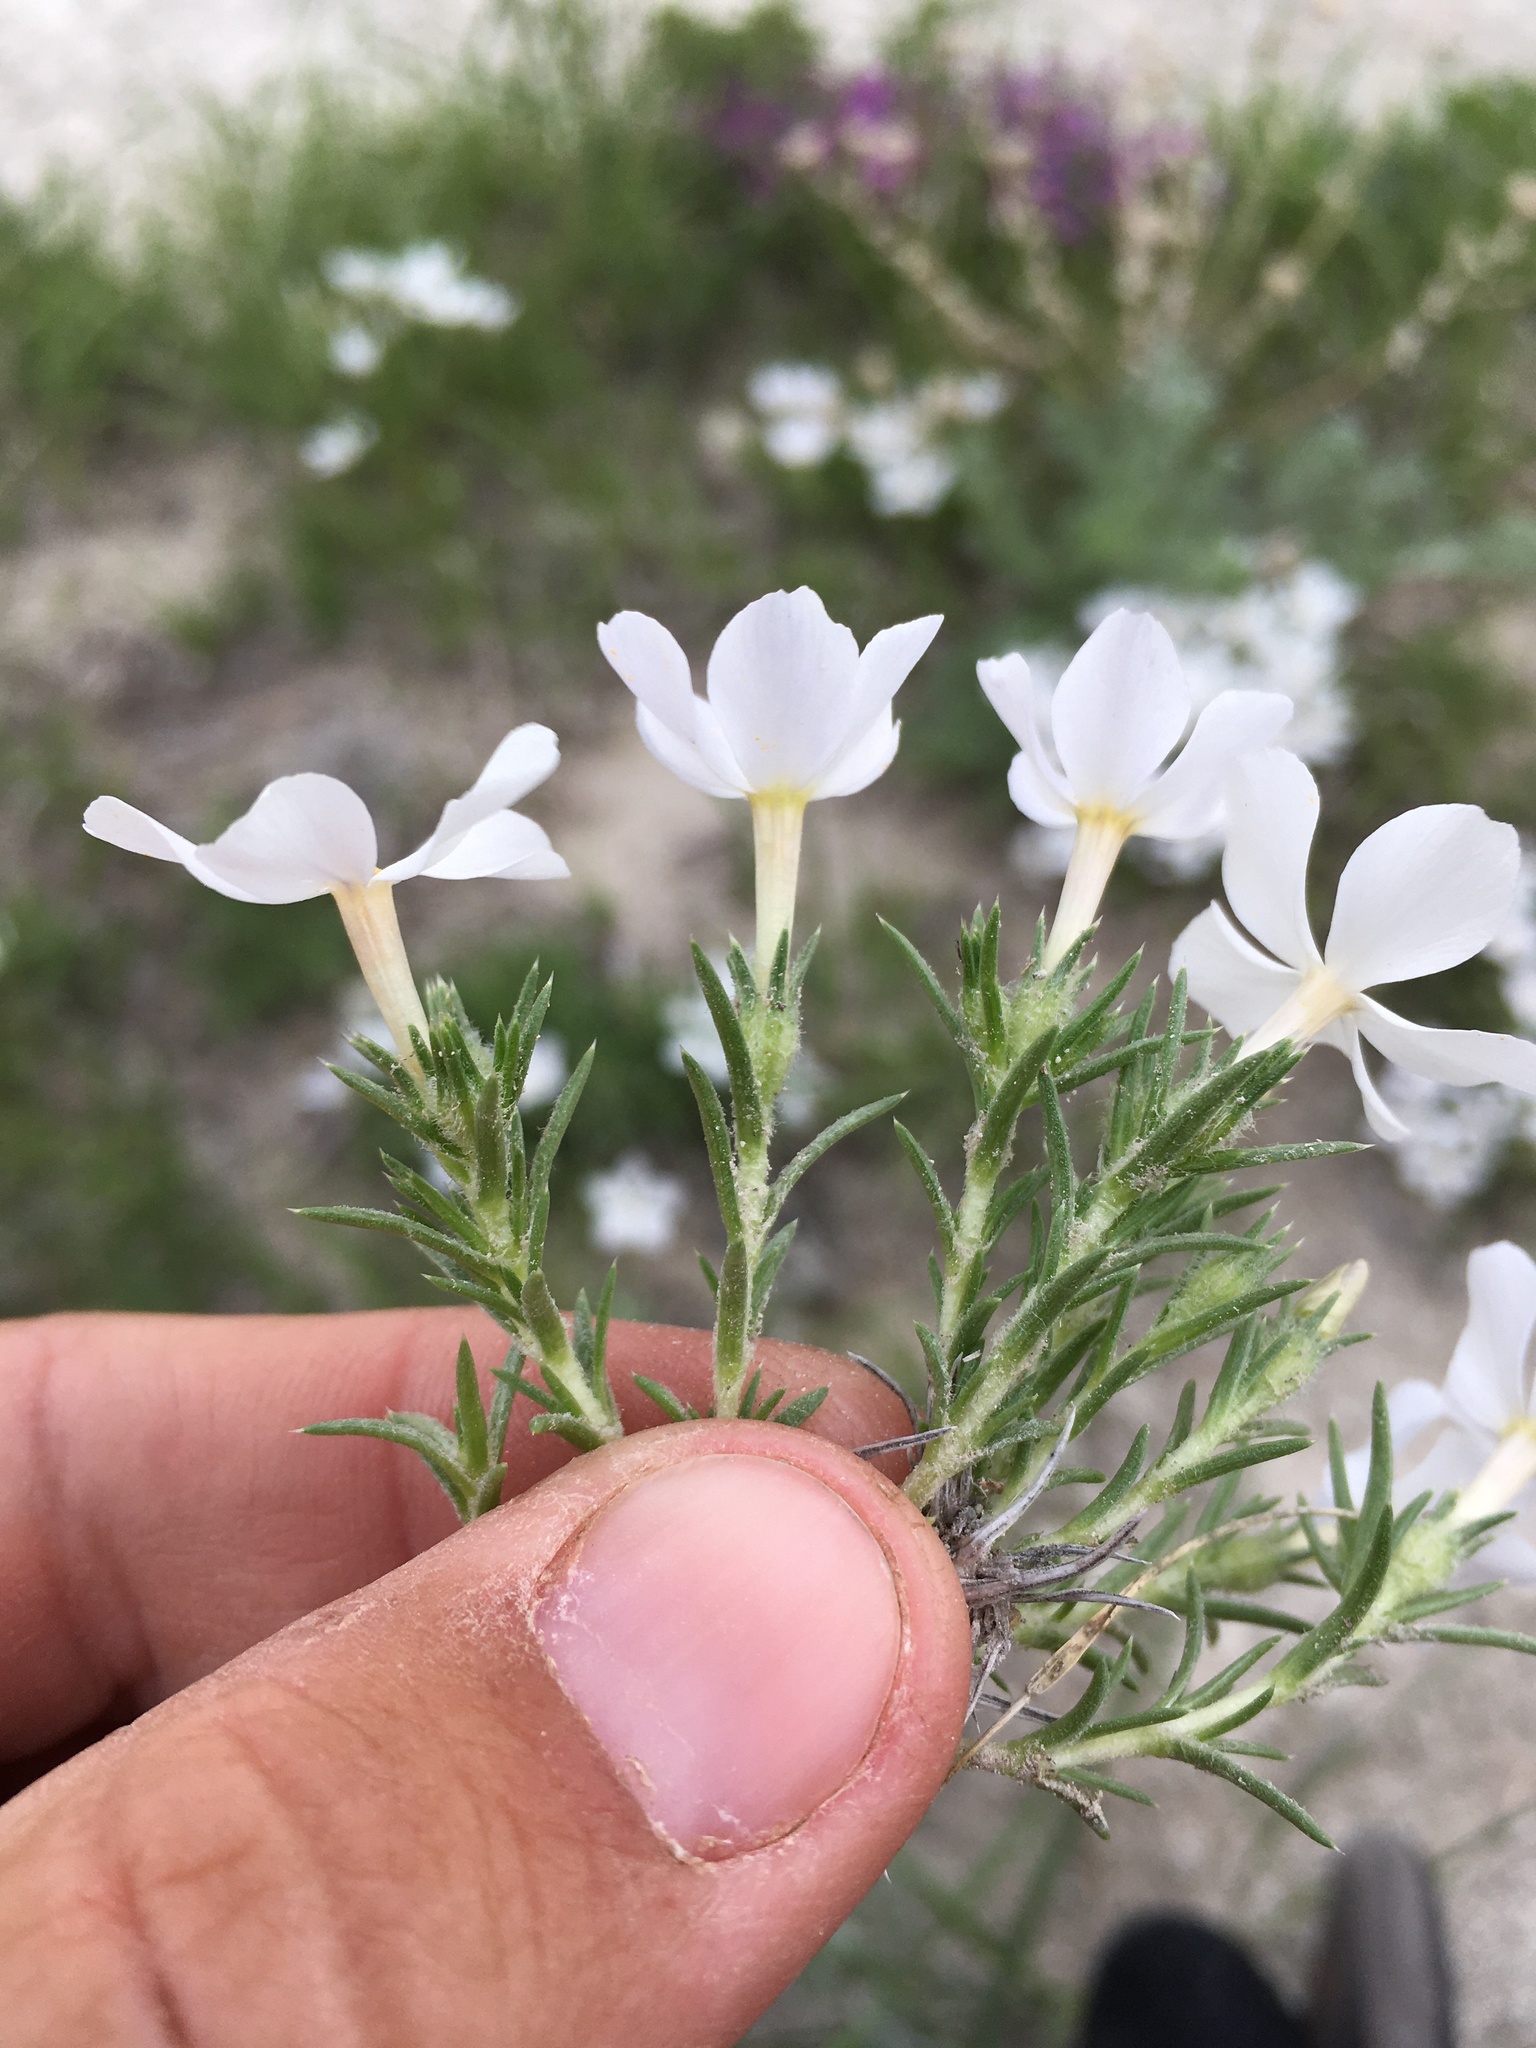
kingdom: Plantae
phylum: Tracheophyta
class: Magnoliopsida
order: Ericales
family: Polemoniaceae
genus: Phlox
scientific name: Phlox andicola
